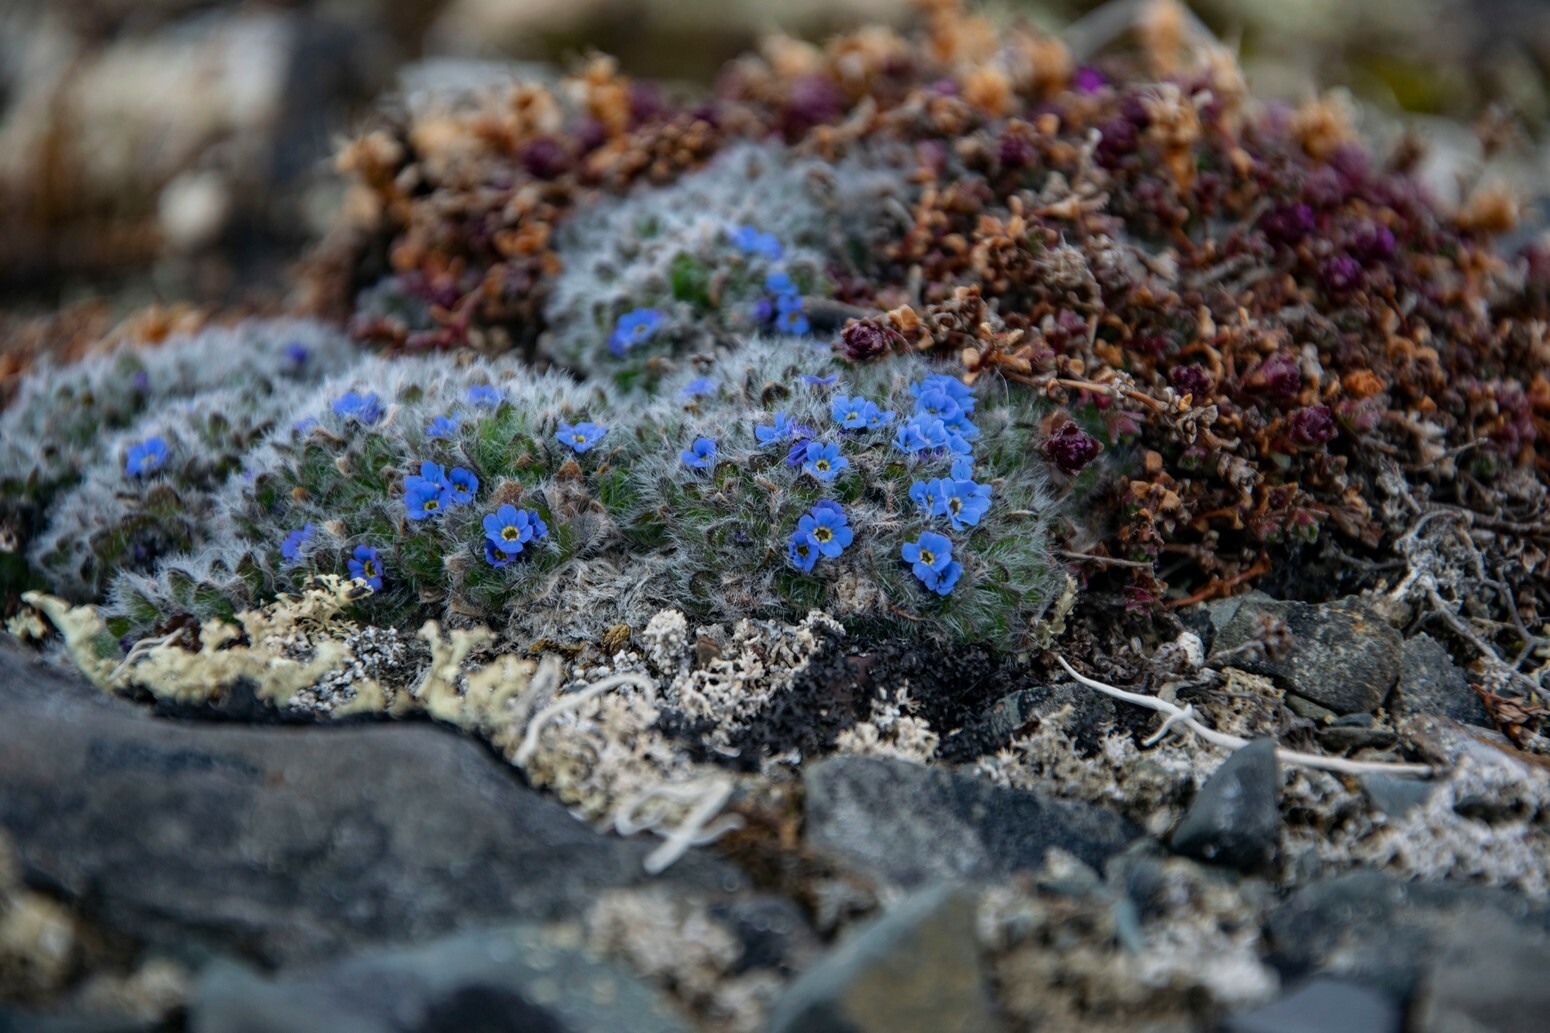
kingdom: Plantae
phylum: Tracheophyta
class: Magnoliopsida
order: Boraginales
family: Boraginaceae
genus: Eritrichium
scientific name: Eritrichium pulvinatum
